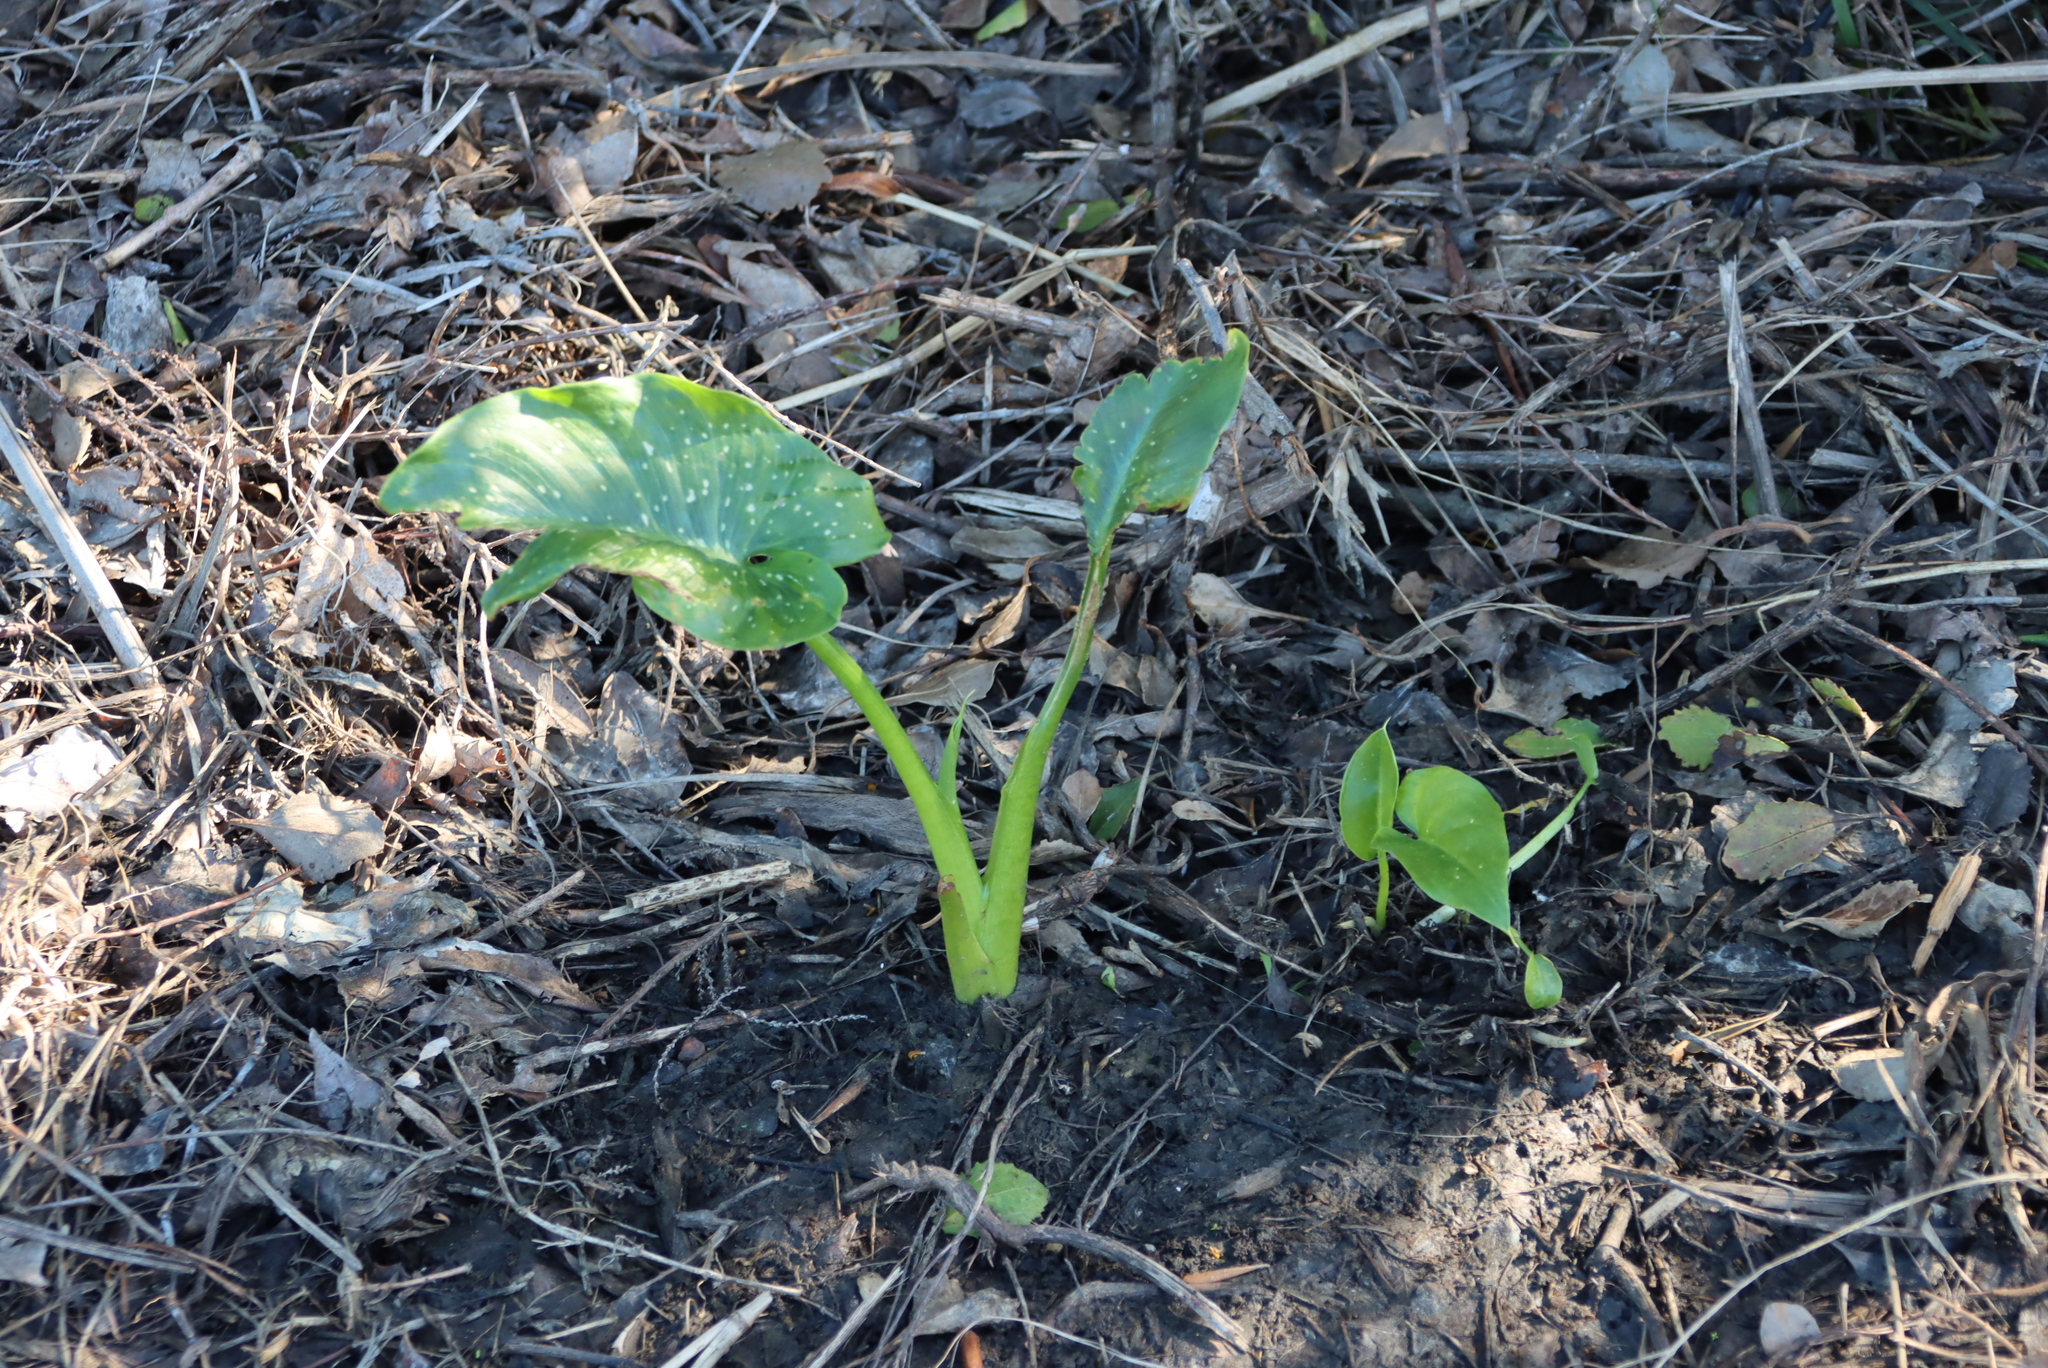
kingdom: Plantae
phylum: Tracheophyta
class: Liliopsida
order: Alismatales
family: Araceae
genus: Zantedeschia
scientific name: Zantedeschia aethiopica
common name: Altar-lily
